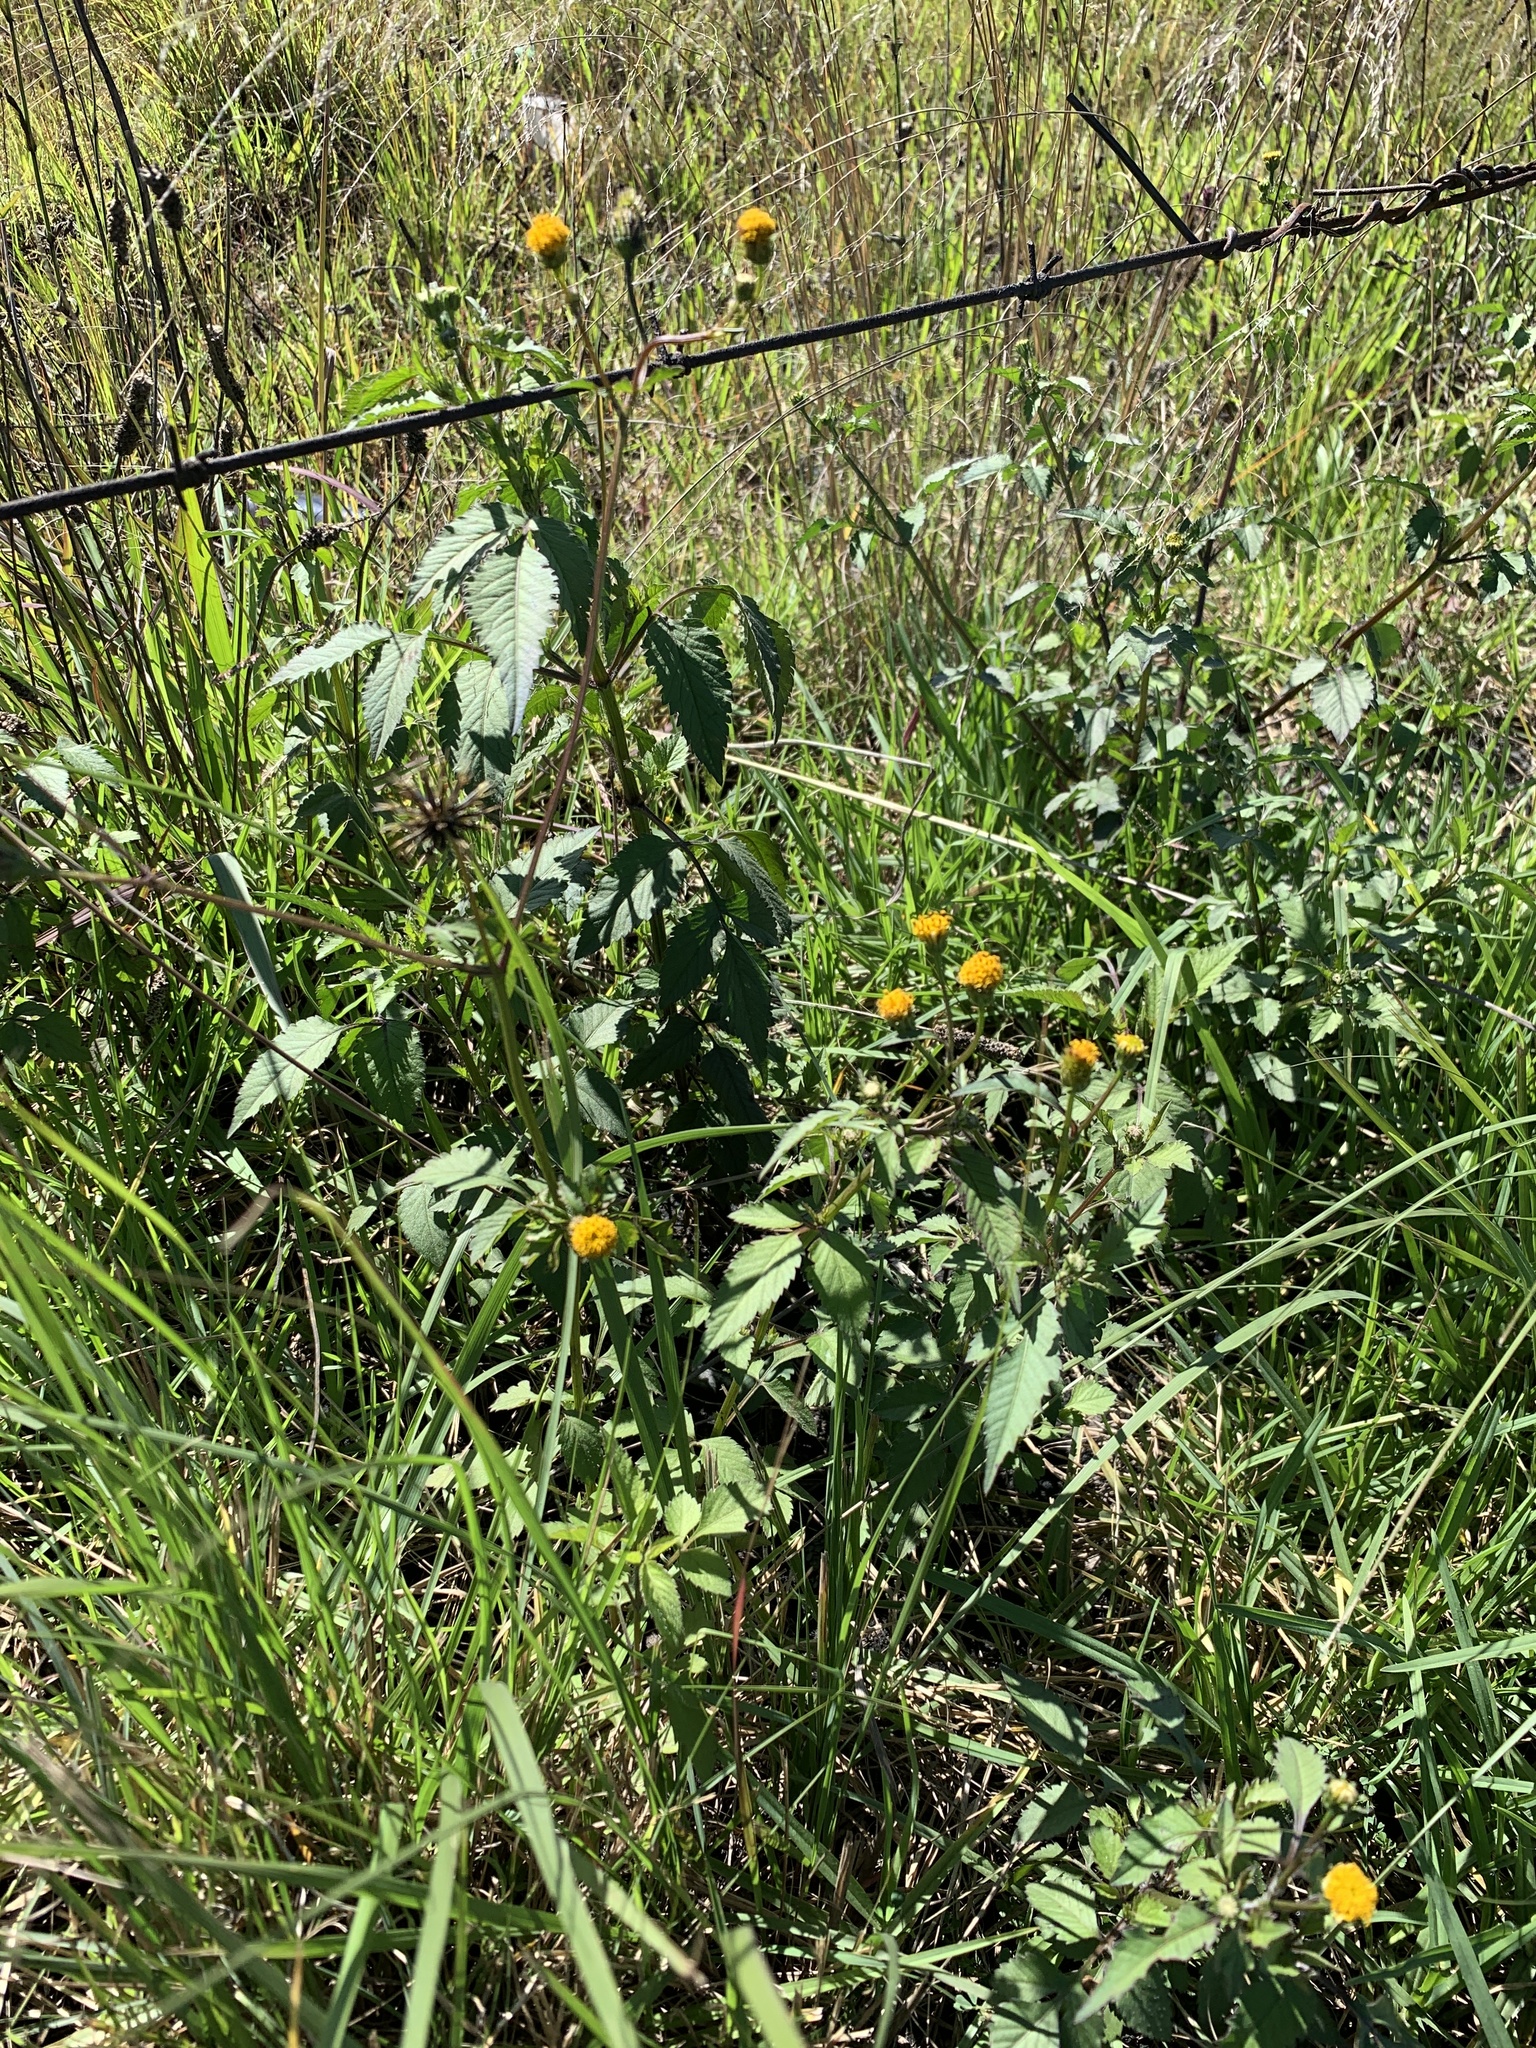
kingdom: Plantae
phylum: Tracheophyta
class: Magnoliopsida
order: Asterales
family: Asteraceae
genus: Bidens
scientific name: Bidens pilosa
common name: Black-jack
